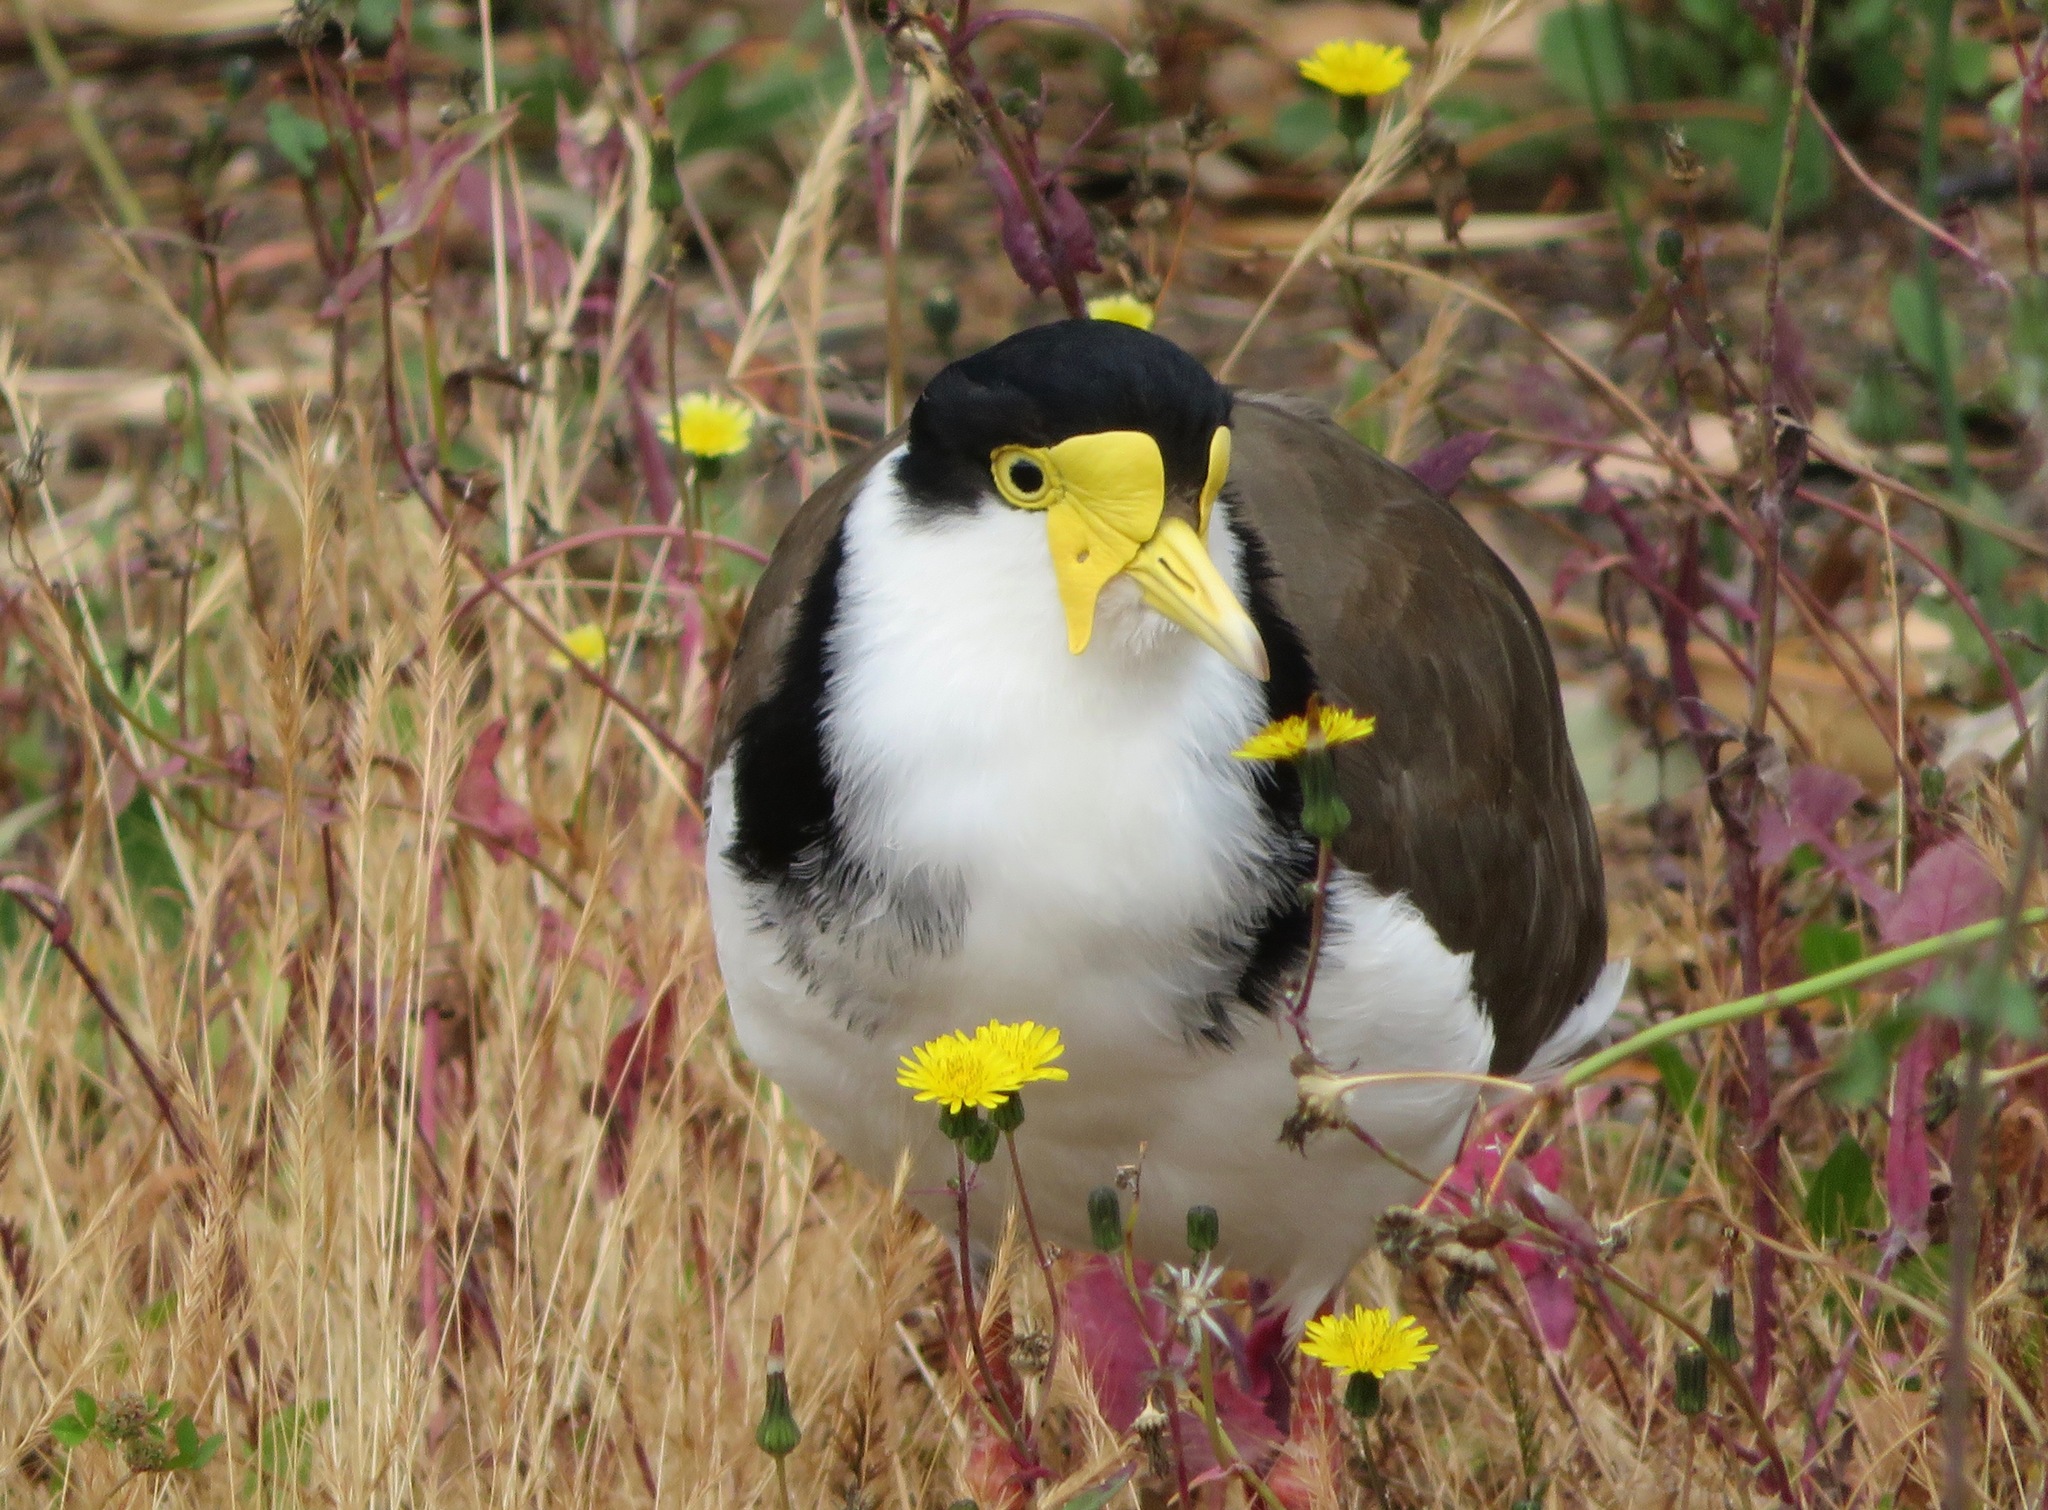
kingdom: Animalia
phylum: Chordata
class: Aves
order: Charadriiformes
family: Charadriidae
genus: Vanellus
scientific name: Vanellus miles
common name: Masked lapwing
